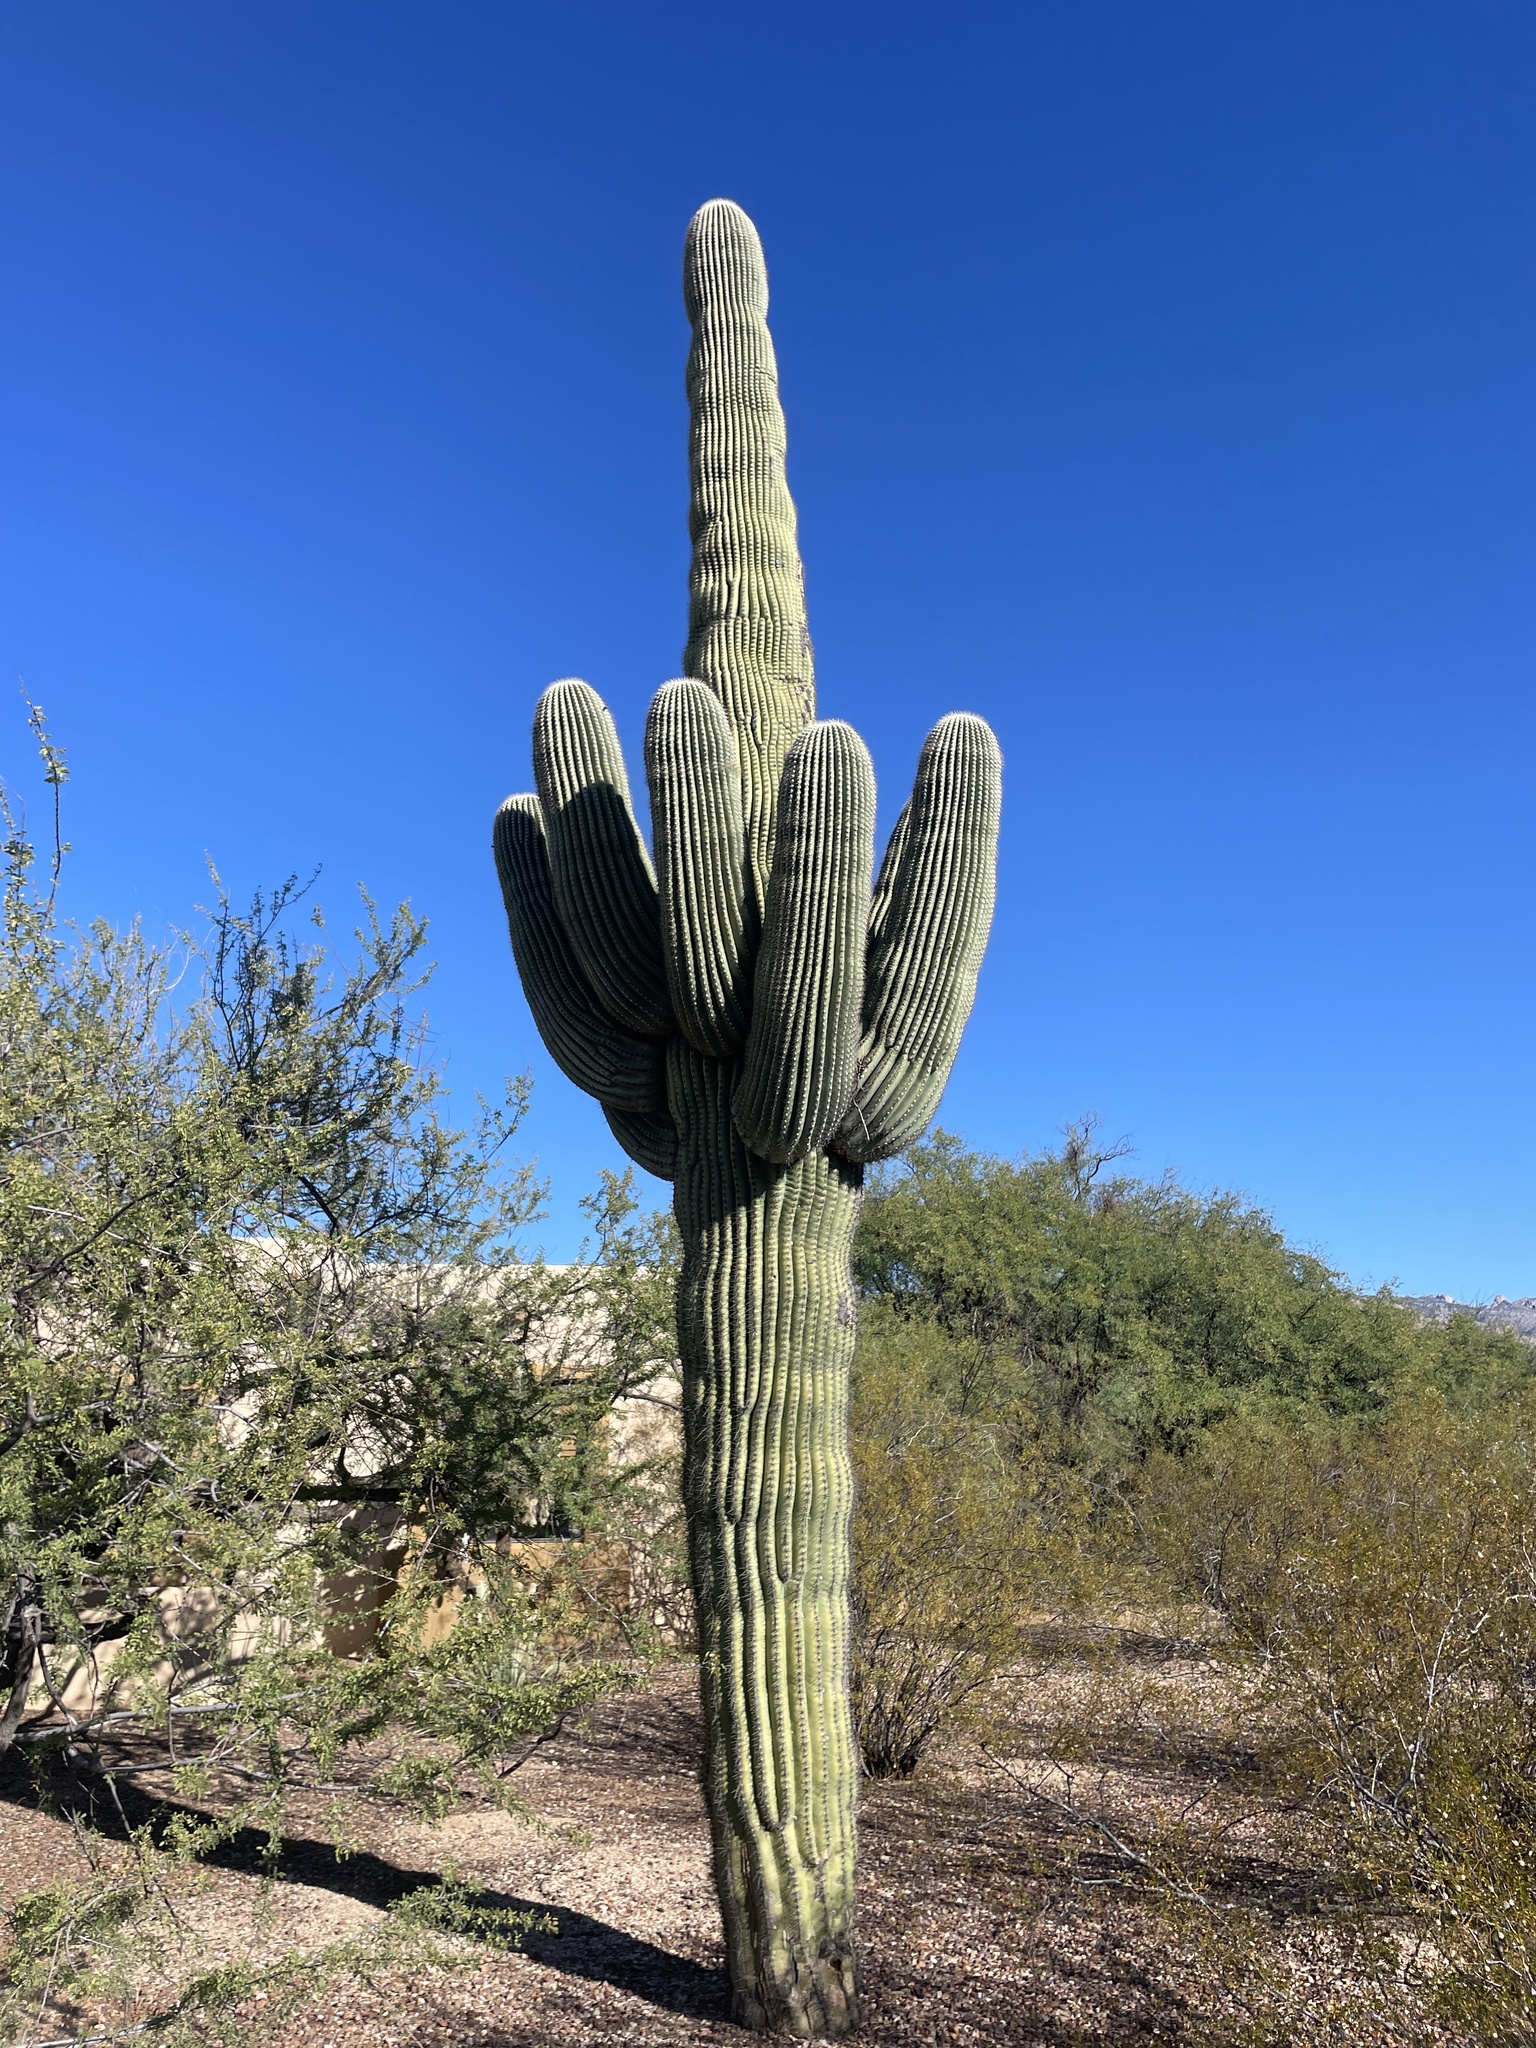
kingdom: Plantae
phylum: Tracheophyta
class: Magnoliopsida
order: Caryophyllales
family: Cactaceae
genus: Carnegiea
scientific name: Carnegiea gigantea
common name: Saguaro
